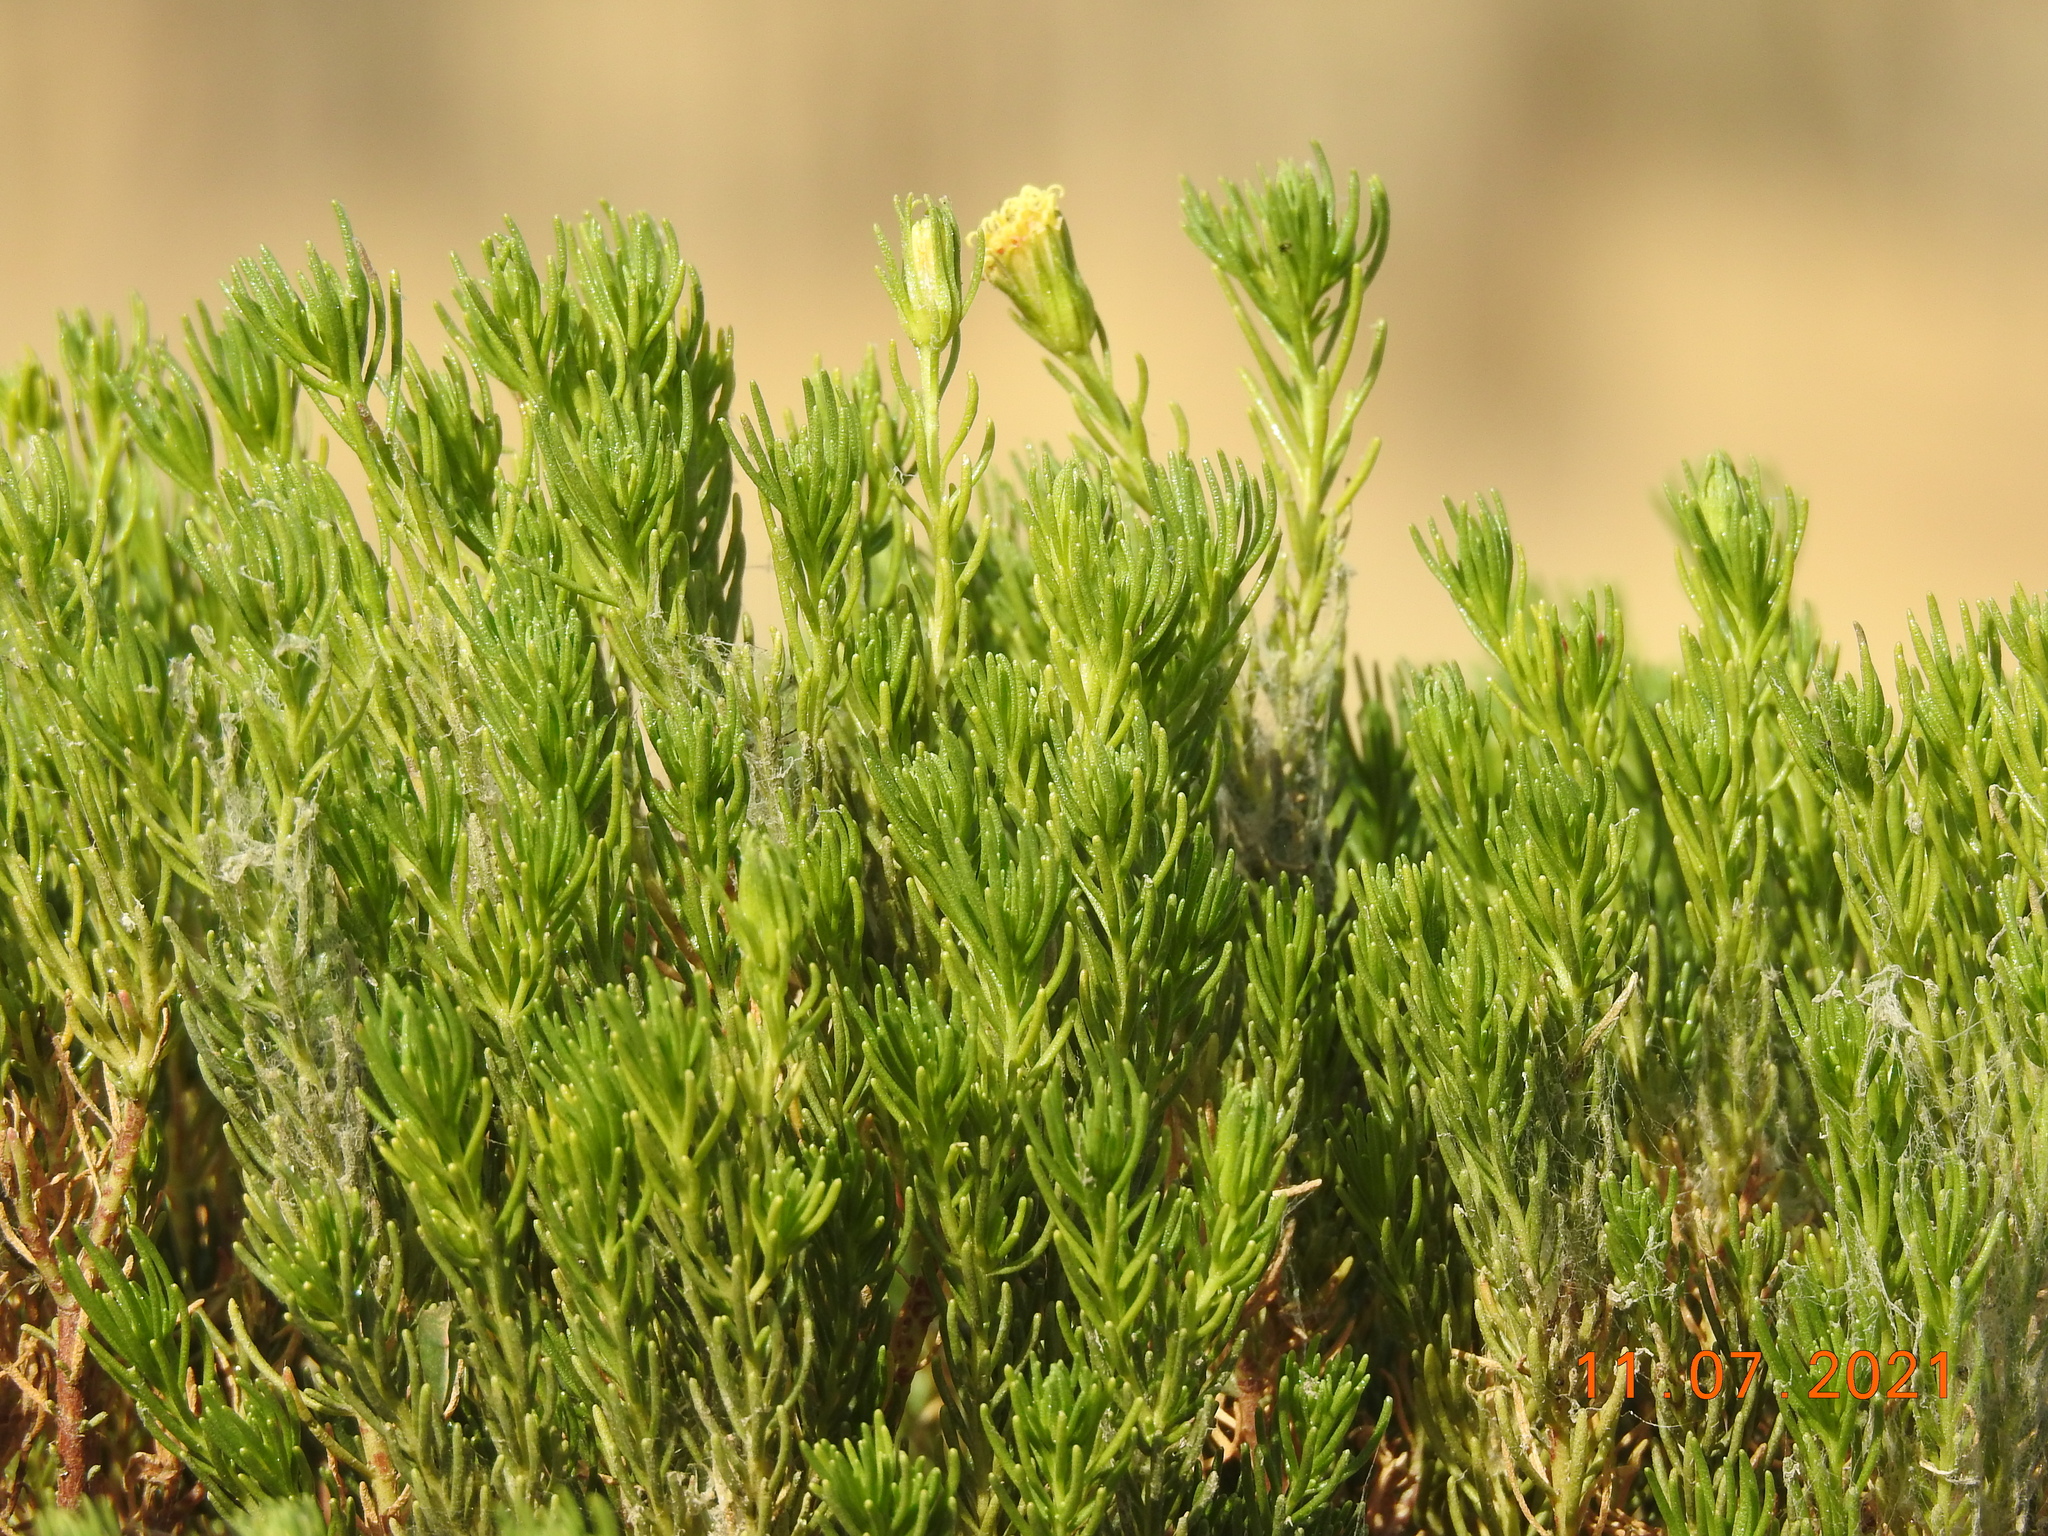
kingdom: Plantae
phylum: Tracheophyta
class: Magnoliopsida
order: Asterales
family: Asteraceae
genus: Peucephyllum
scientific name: Peucephyllum schottii
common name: Pygmy-cedar
